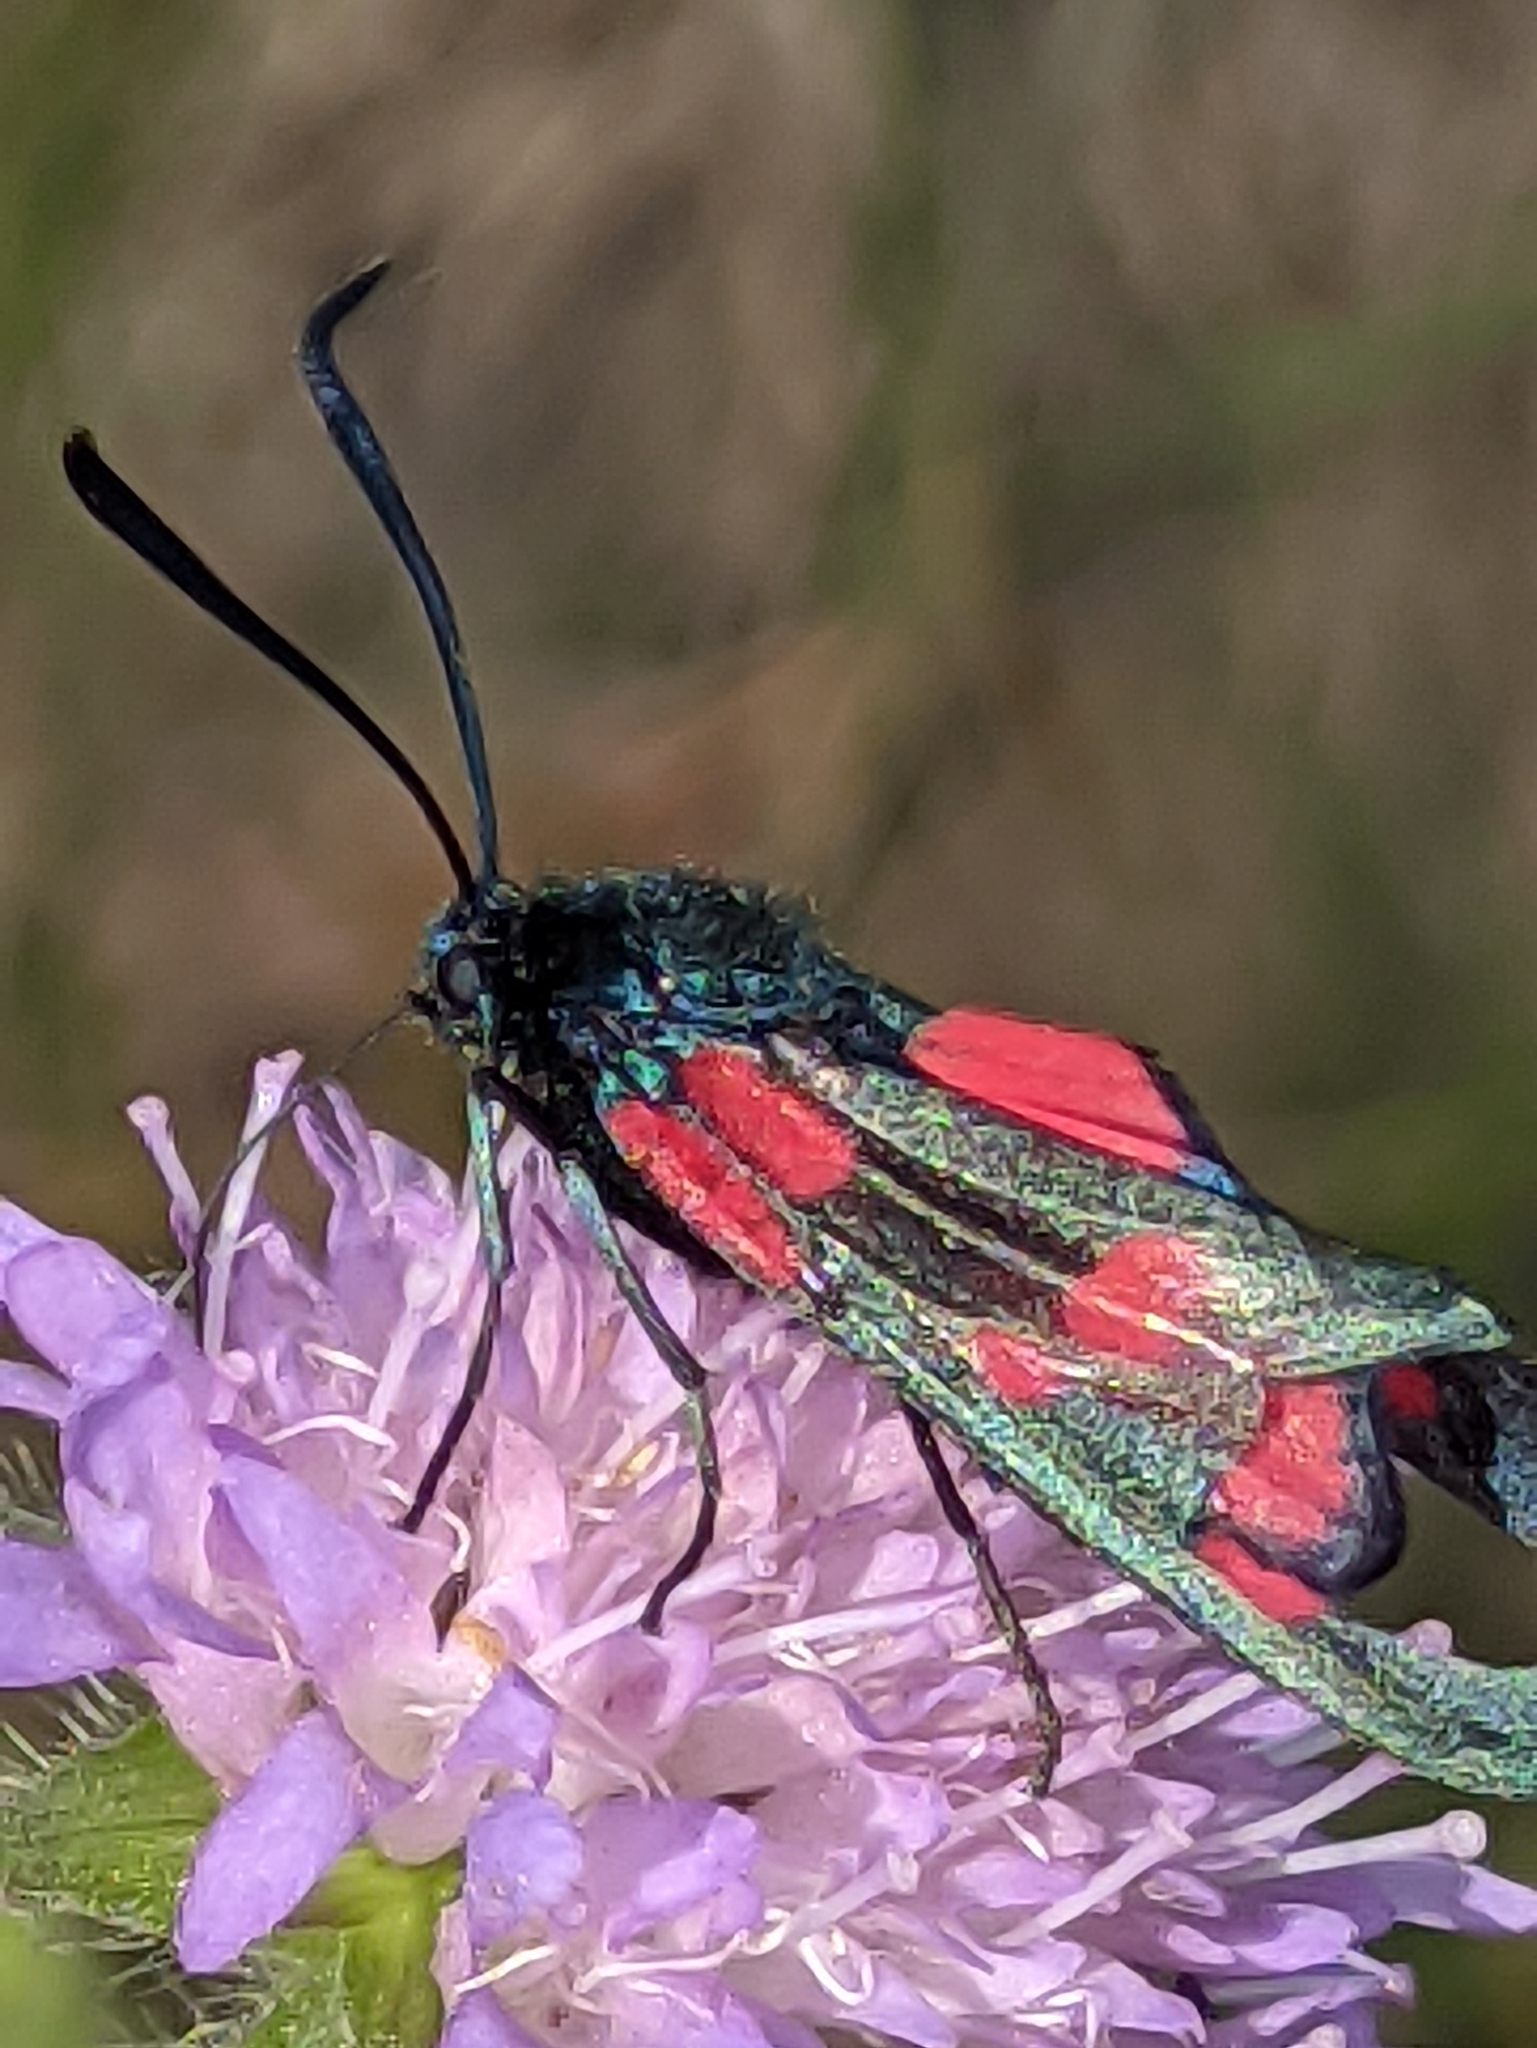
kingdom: Animalia
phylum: Arthropoda
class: Insecta
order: Lepidoptera
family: Zygaenidae
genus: Zygaena
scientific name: Zygaena filipendulae
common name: Six-spot burnet
